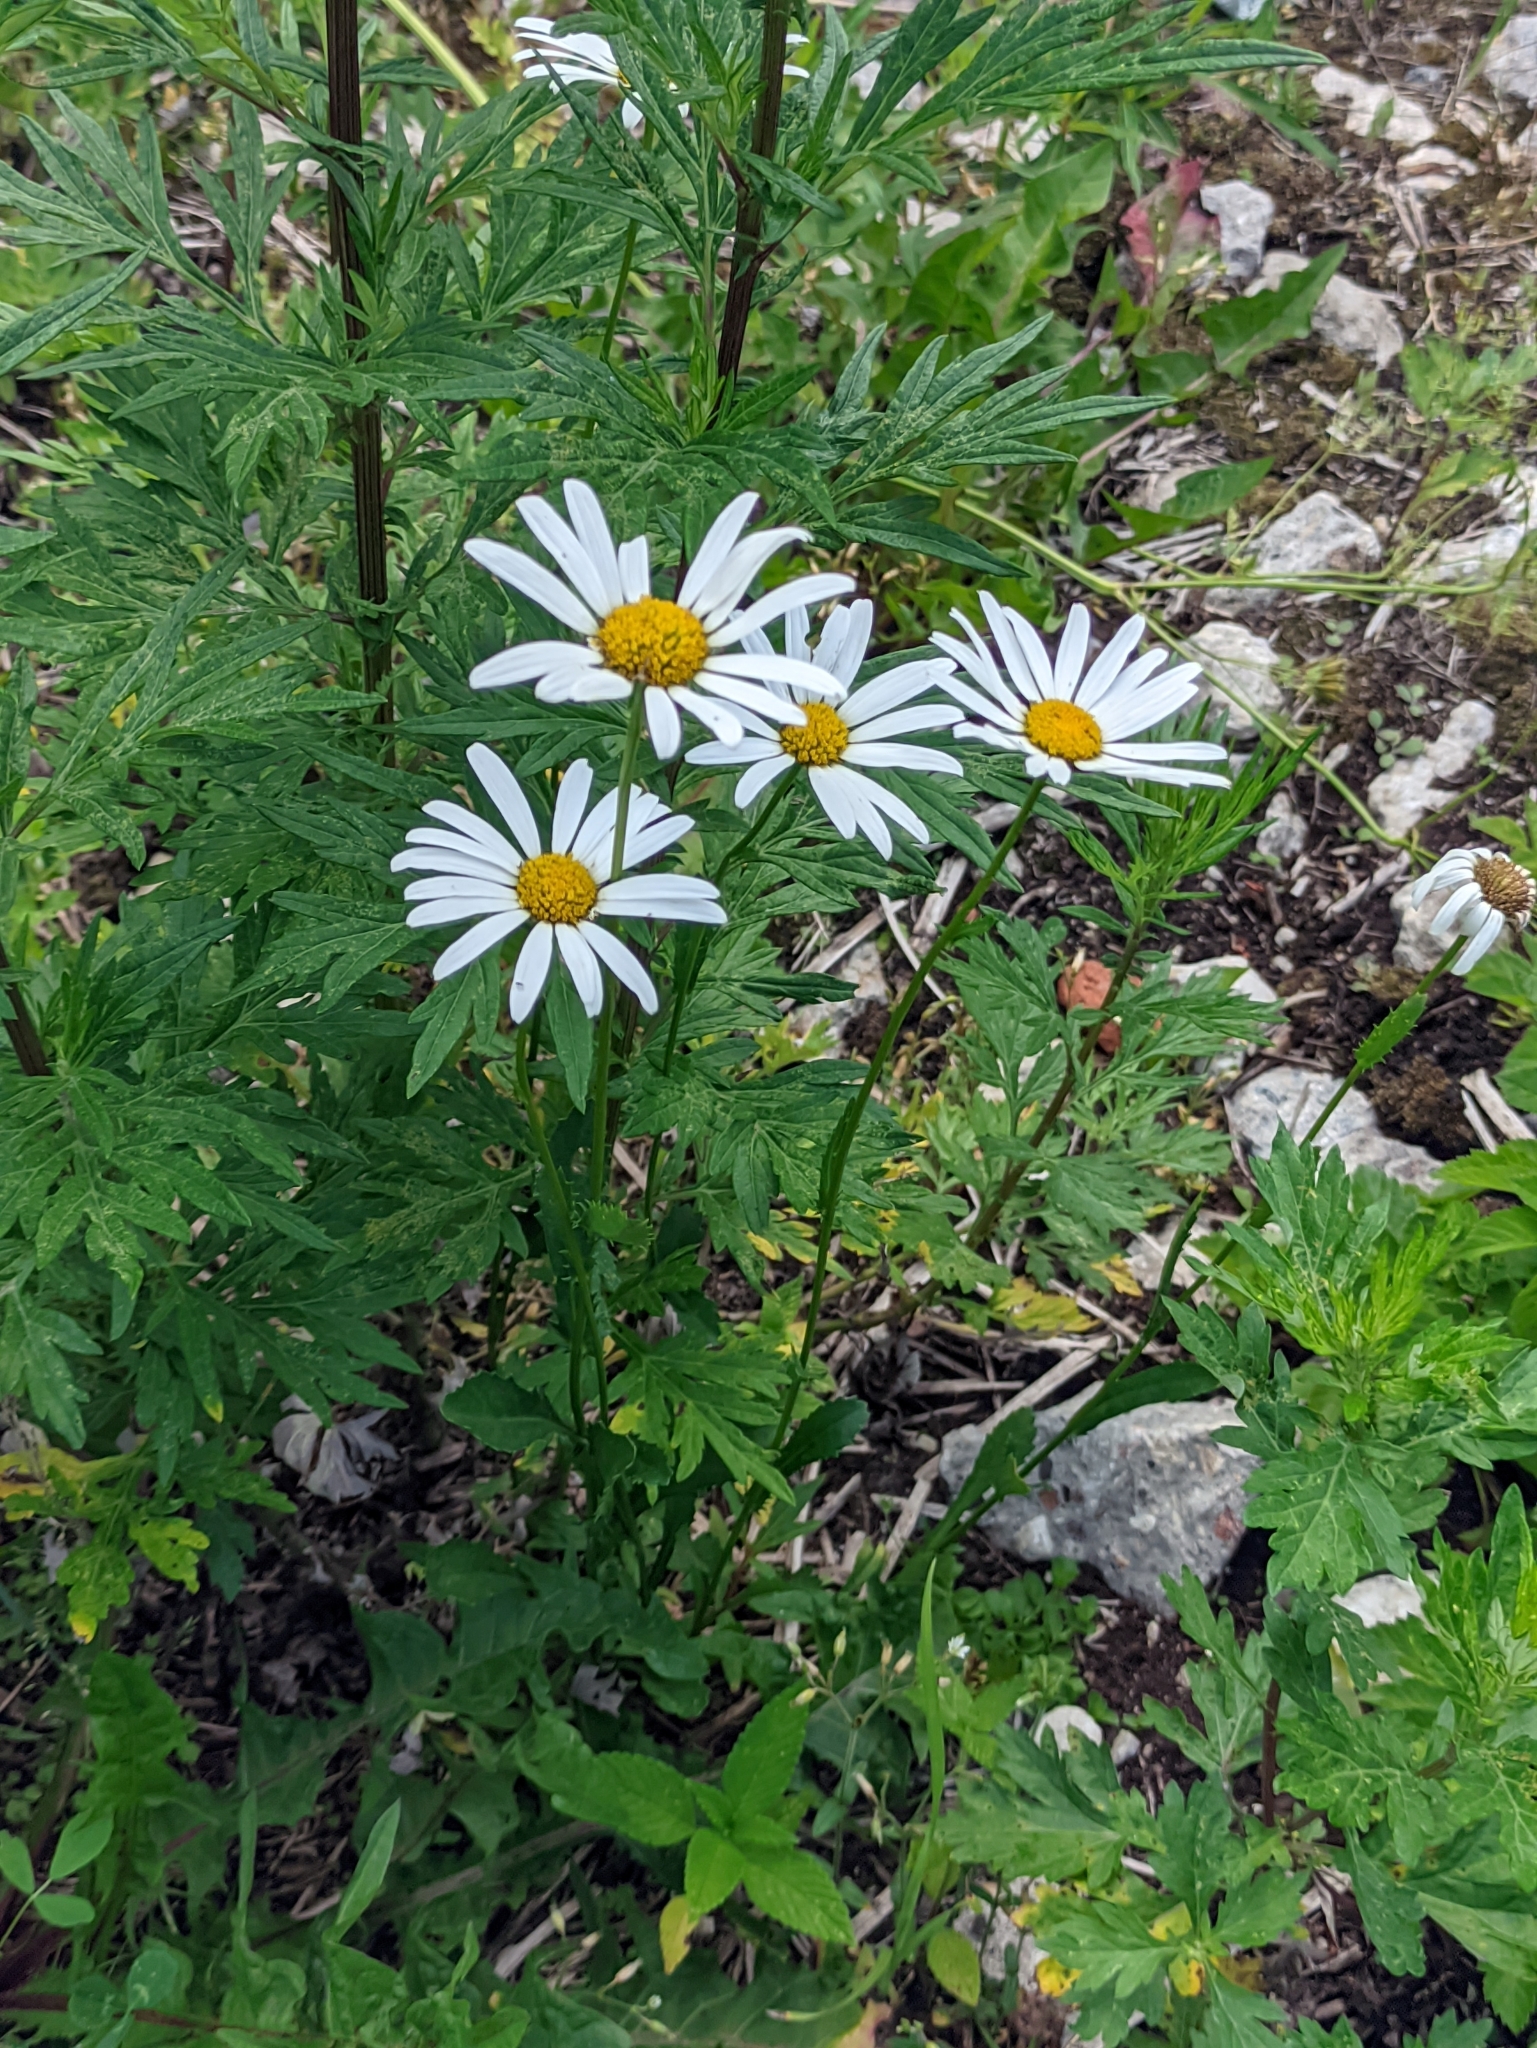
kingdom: Plantae
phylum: Tracheophyta
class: Magnoliopsida
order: Asterales
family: Asteraceae
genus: Leucanthemum
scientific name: Leucanthemum vulgare
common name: Oxeye daisy
